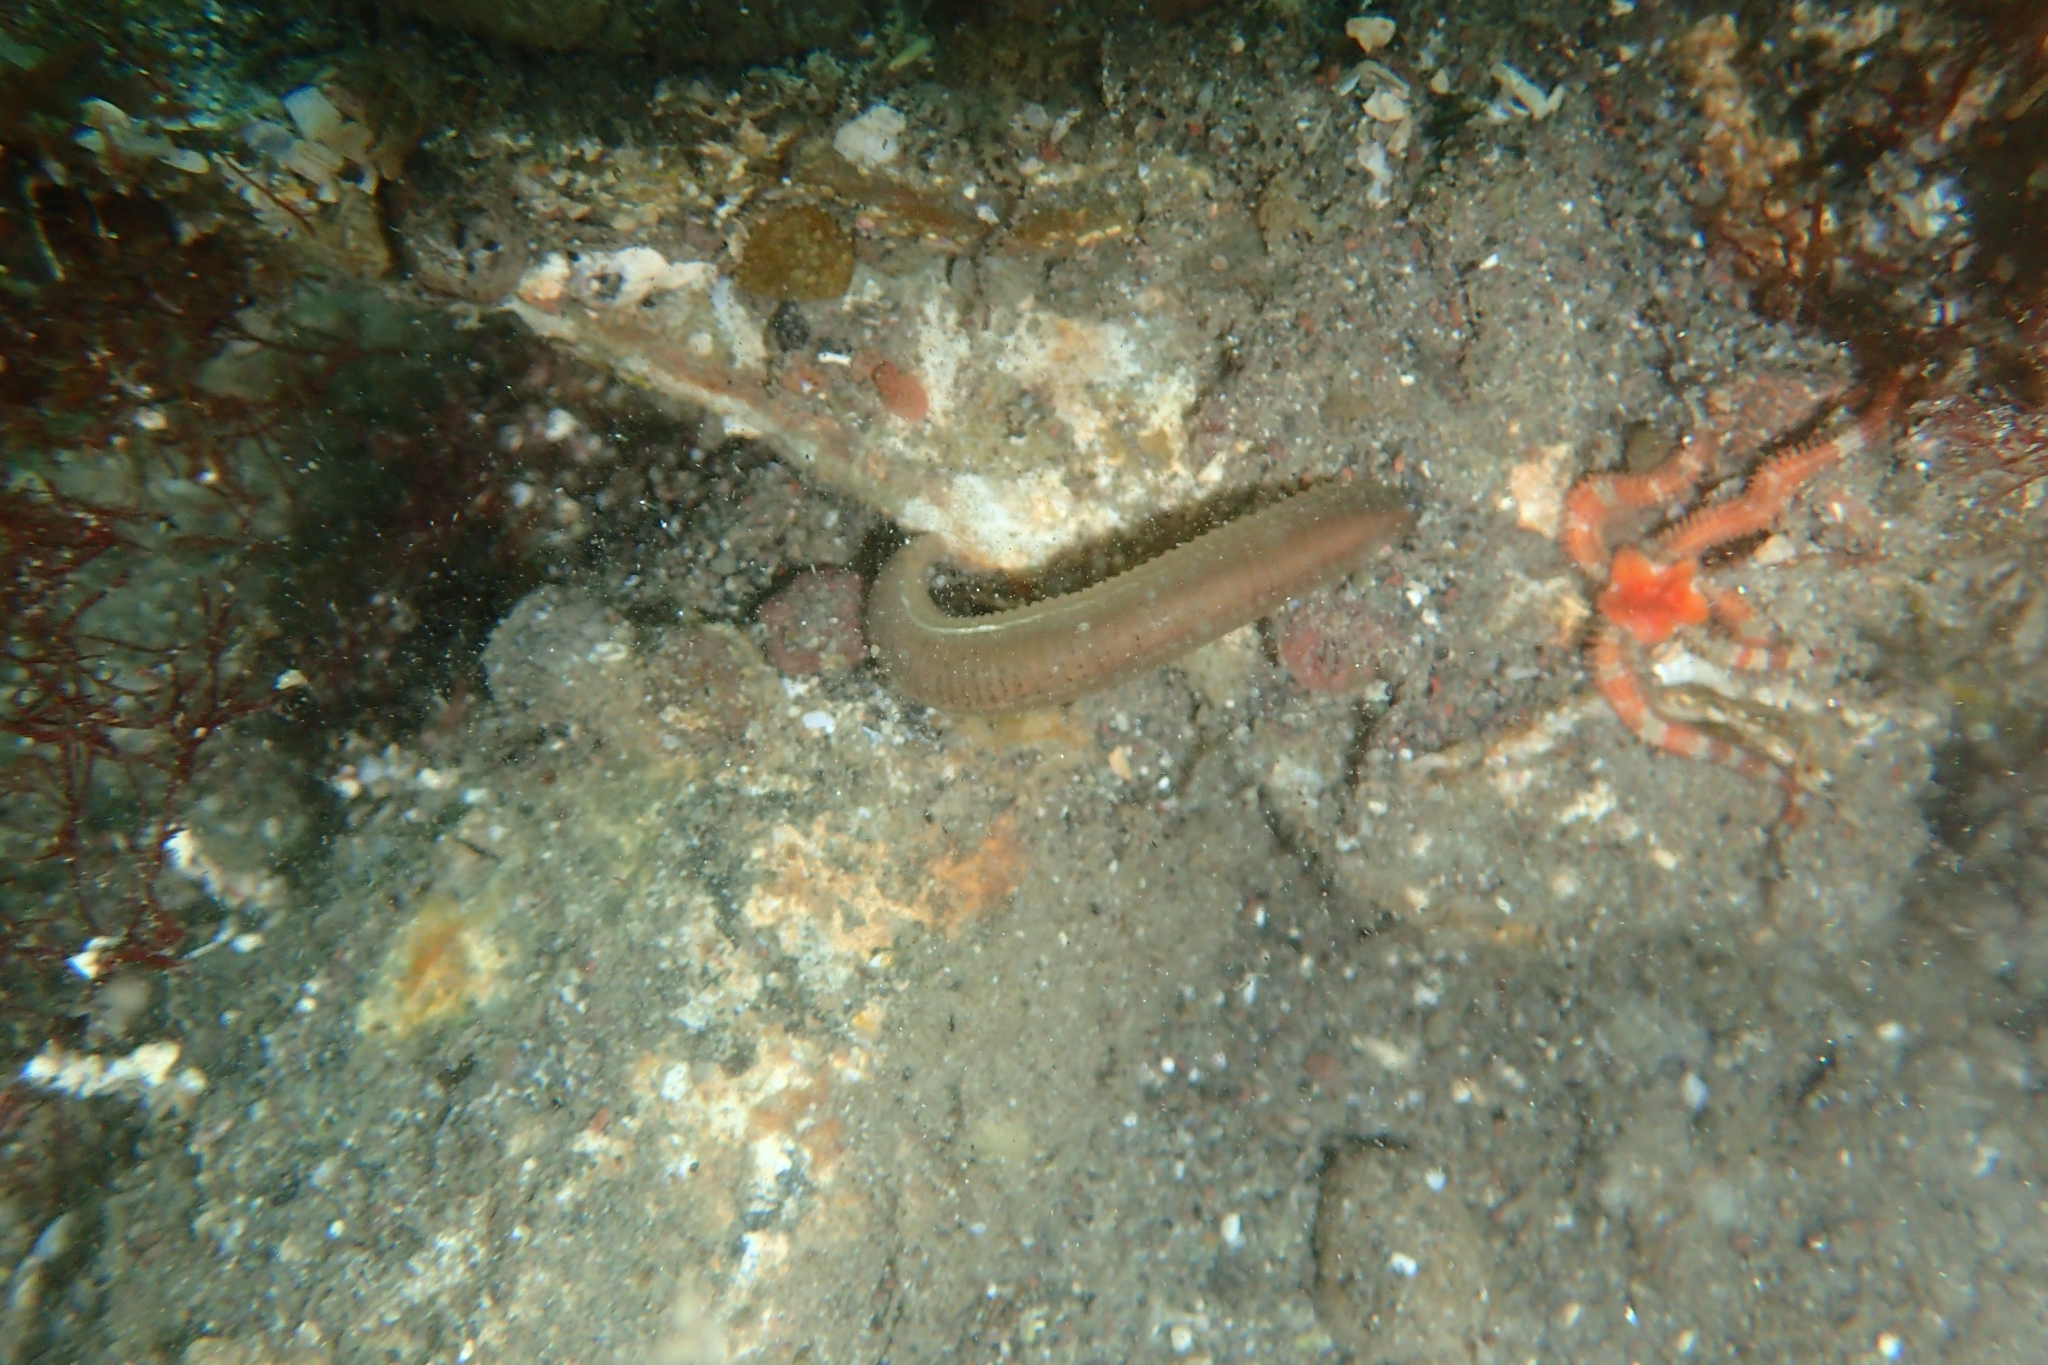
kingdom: Animalia
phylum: Echinodermata
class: Ophiuroidea
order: Amphilepidida
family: Ophiactidae
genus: Ophiactis
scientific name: Ophiactis resiliens
